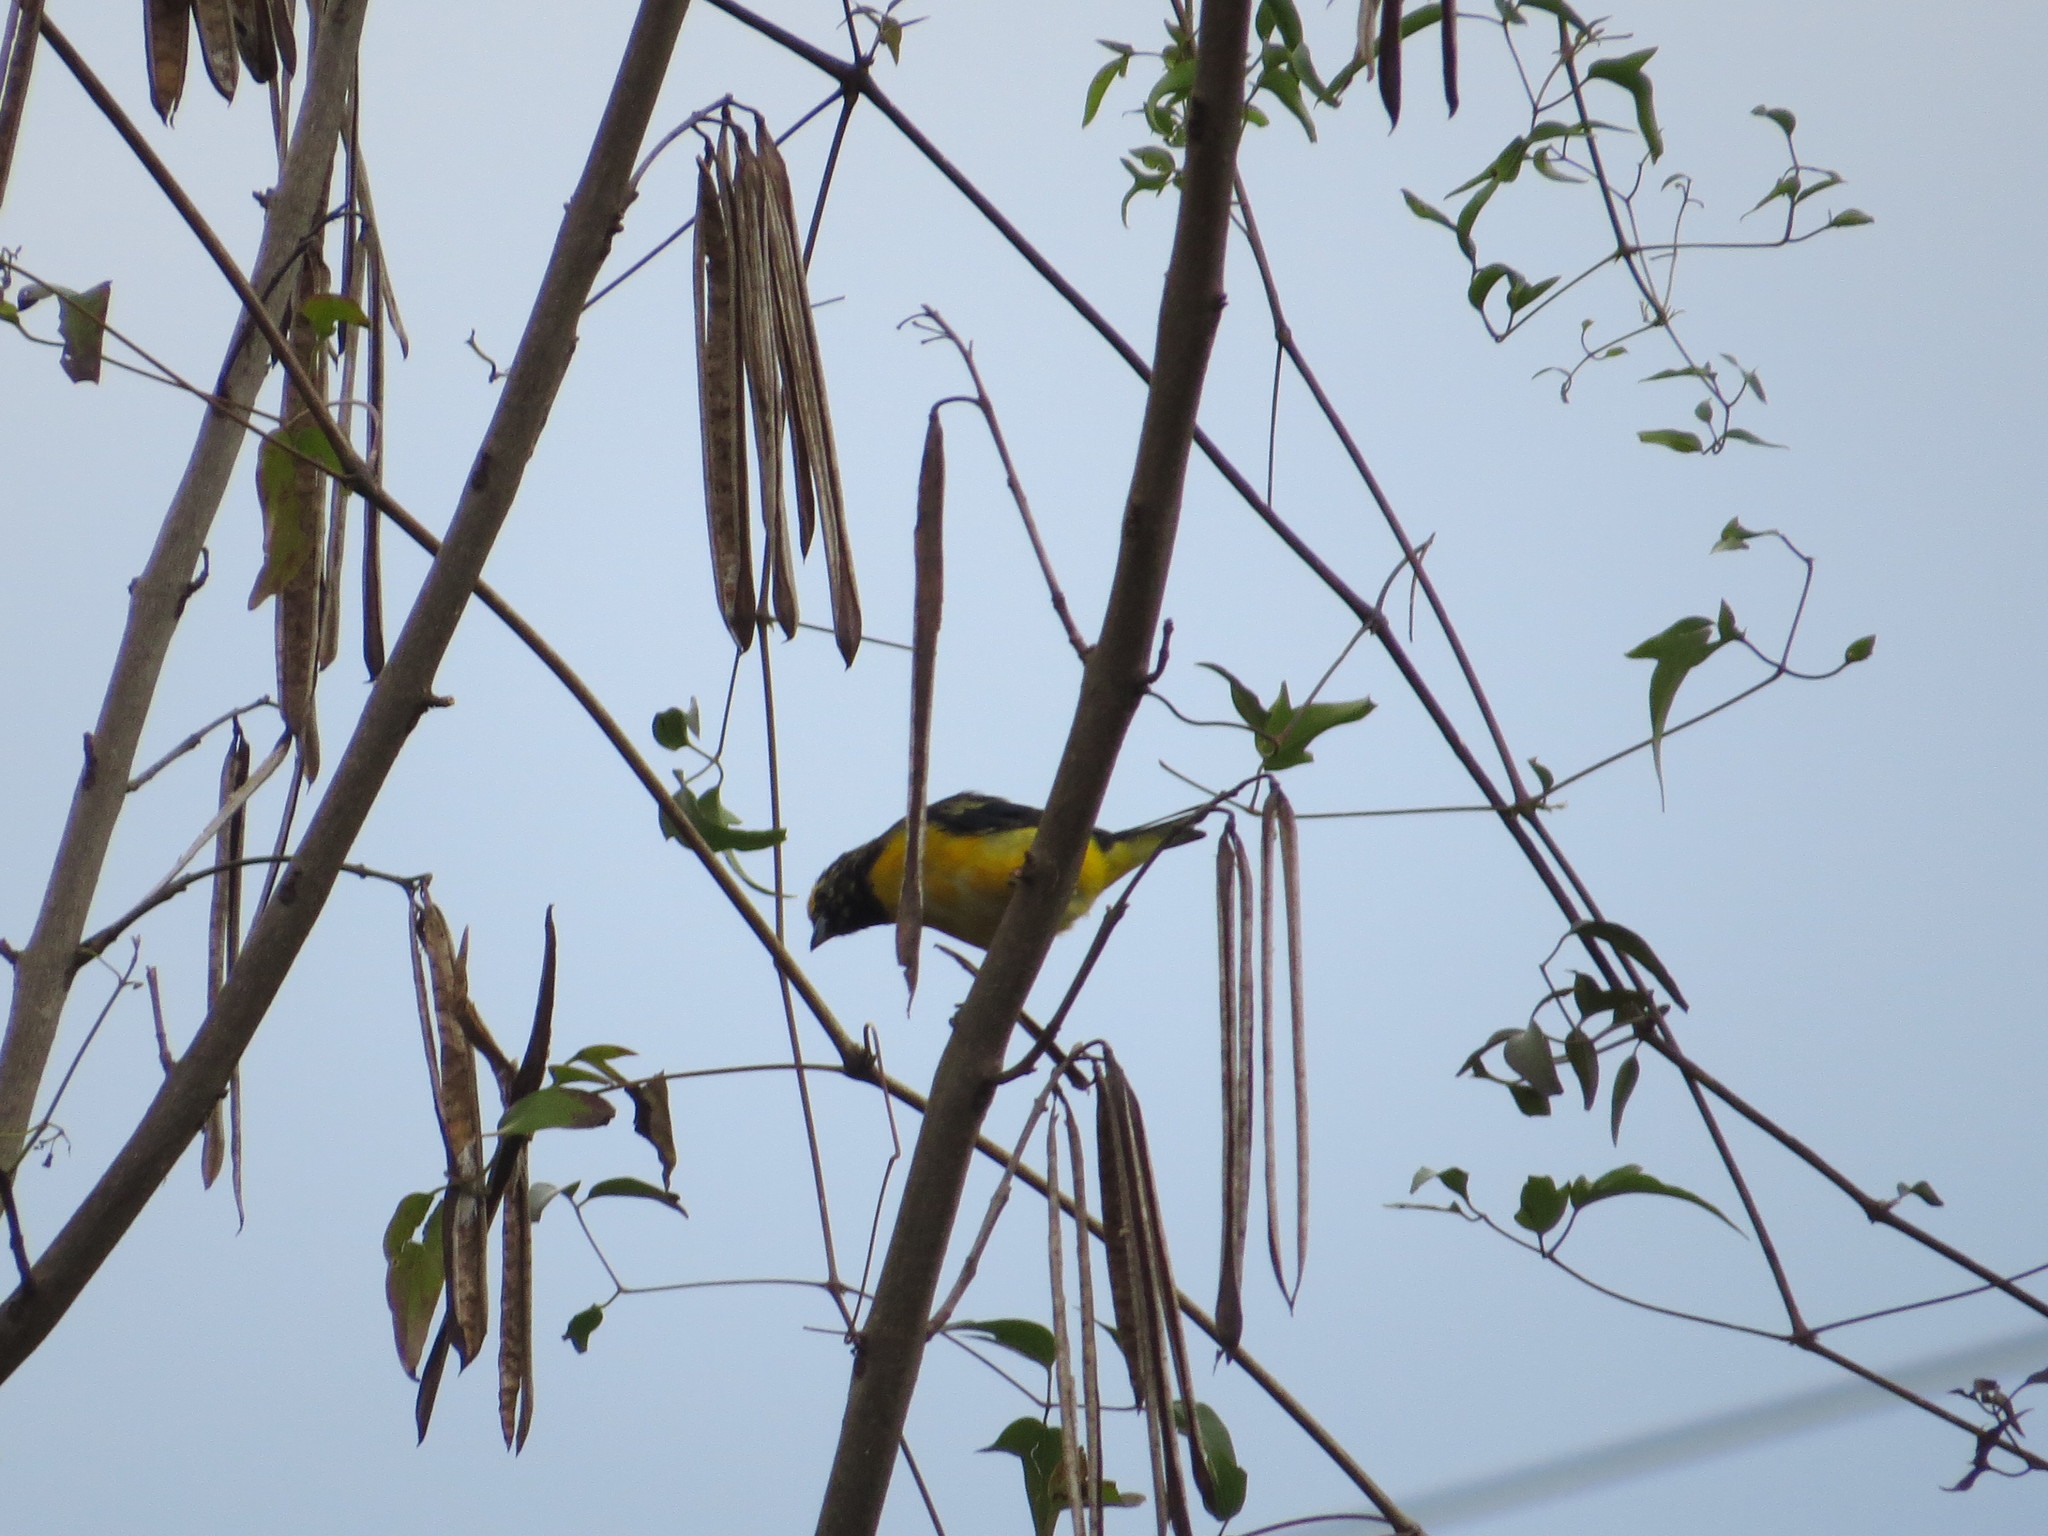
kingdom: Animalia
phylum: Chordata
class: Aves
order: Passeriformes
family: Fringillidae
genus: Euphonia
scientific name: Euphonia chlorotica
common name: Purple-throated euphonia
